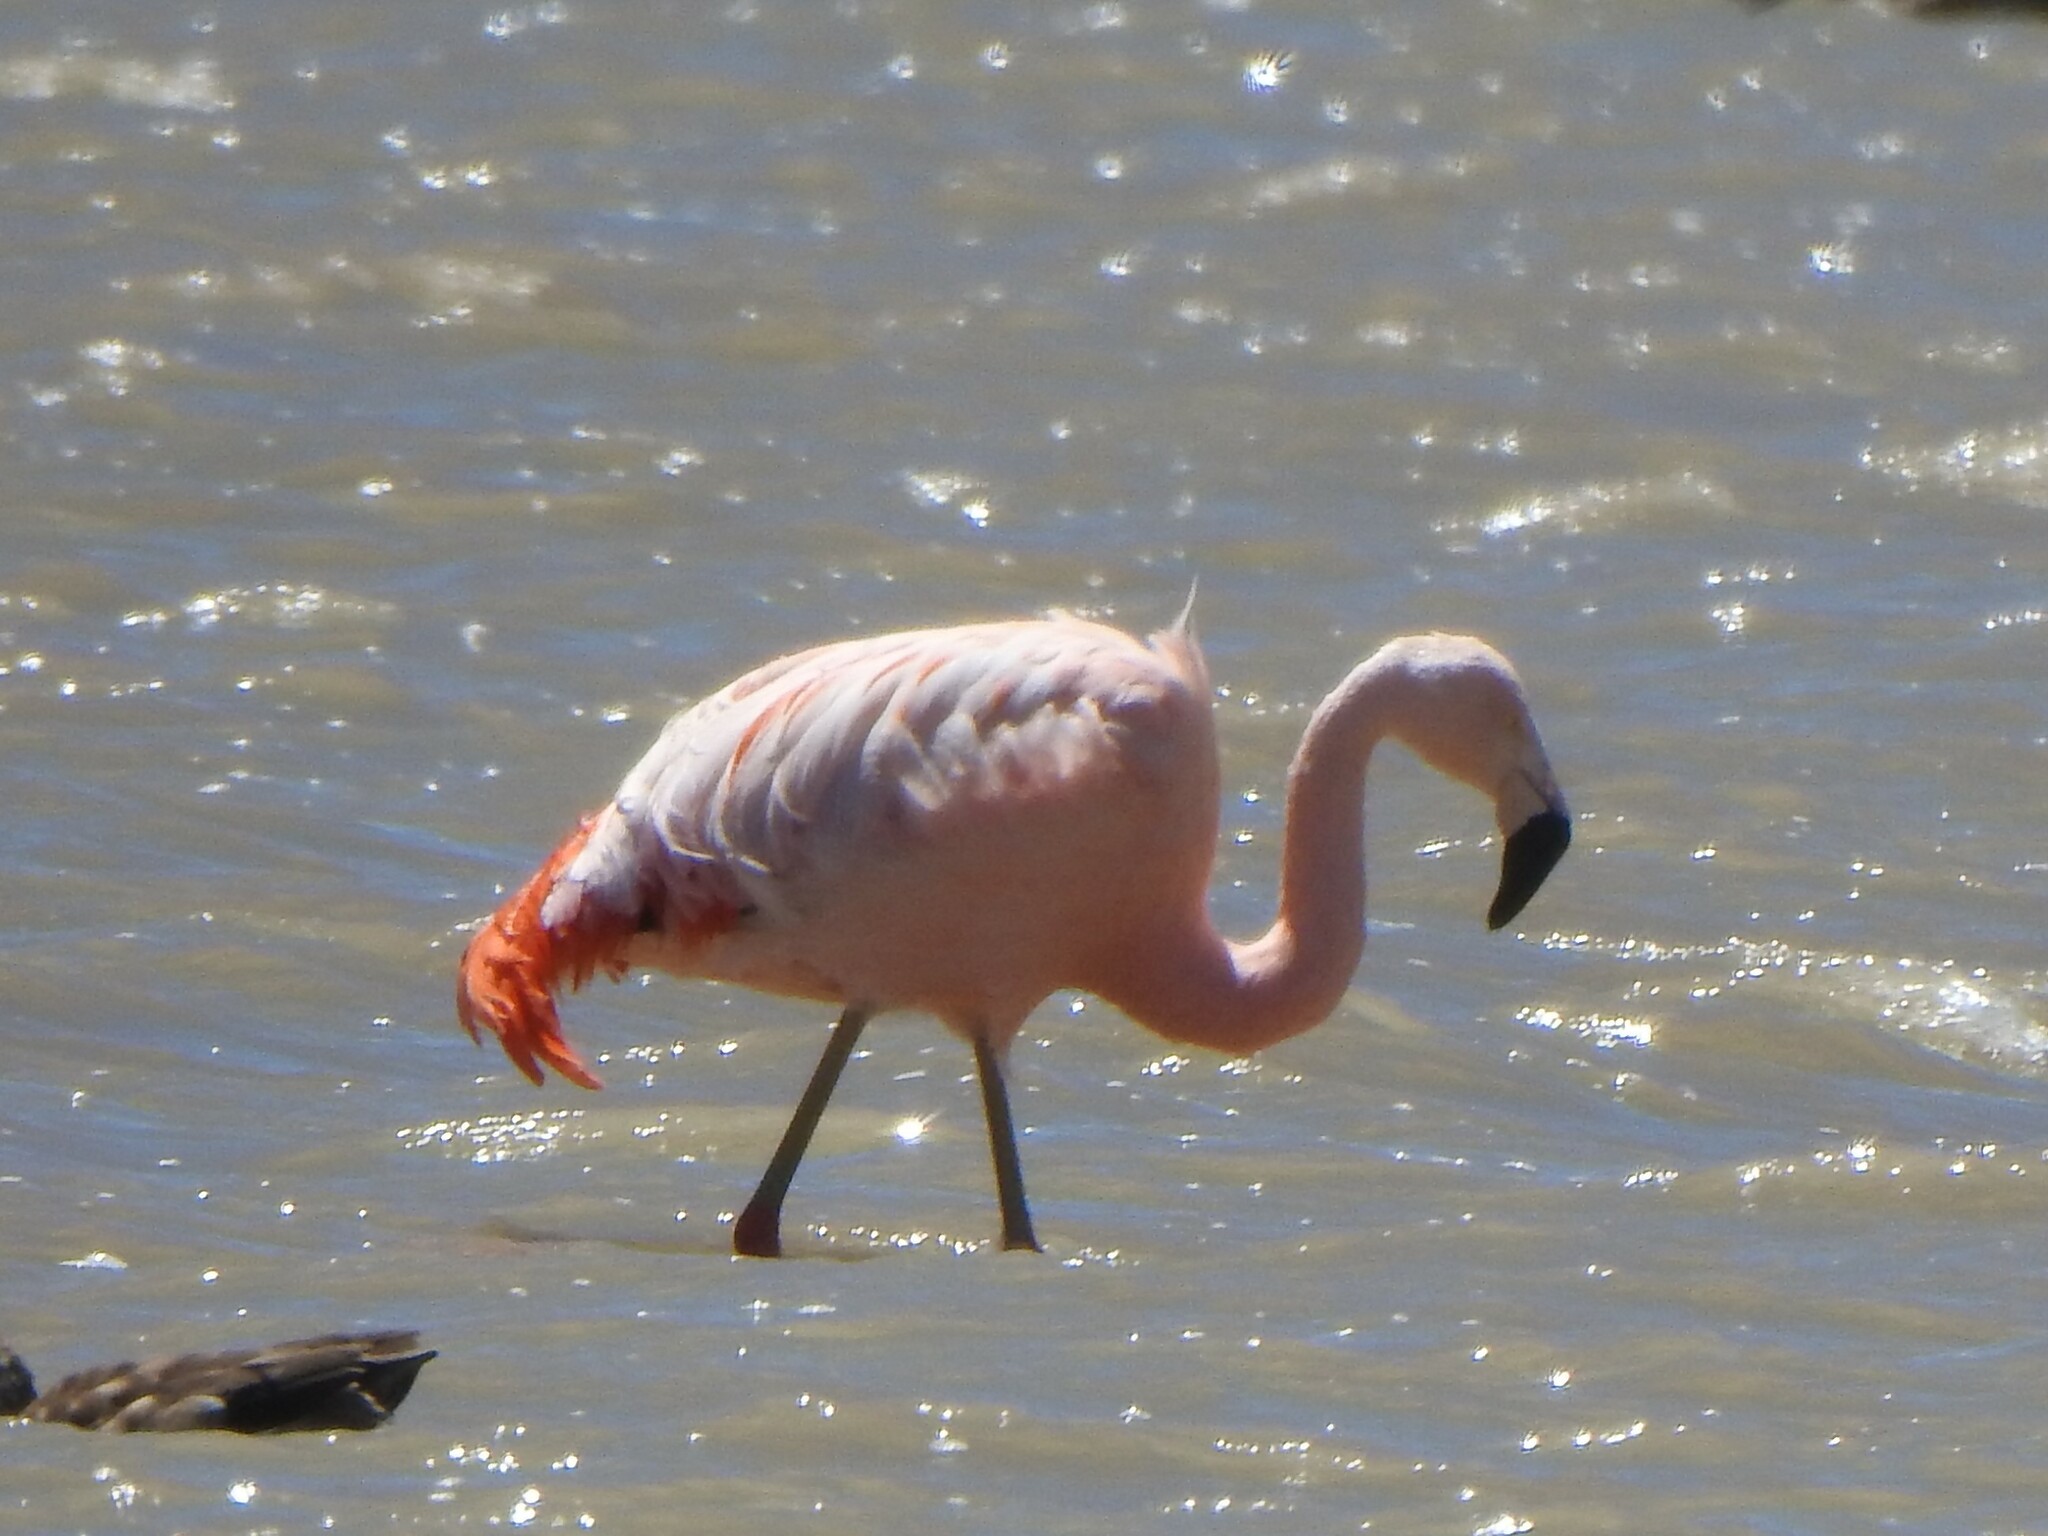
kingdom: Animalia
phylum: Chordata
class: Aves
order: Phoenicopteriformes
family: Phoenicopteridae
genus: Phoenicopterus
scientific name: Phoenicopterus chilensis
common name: Chilean flamingo
